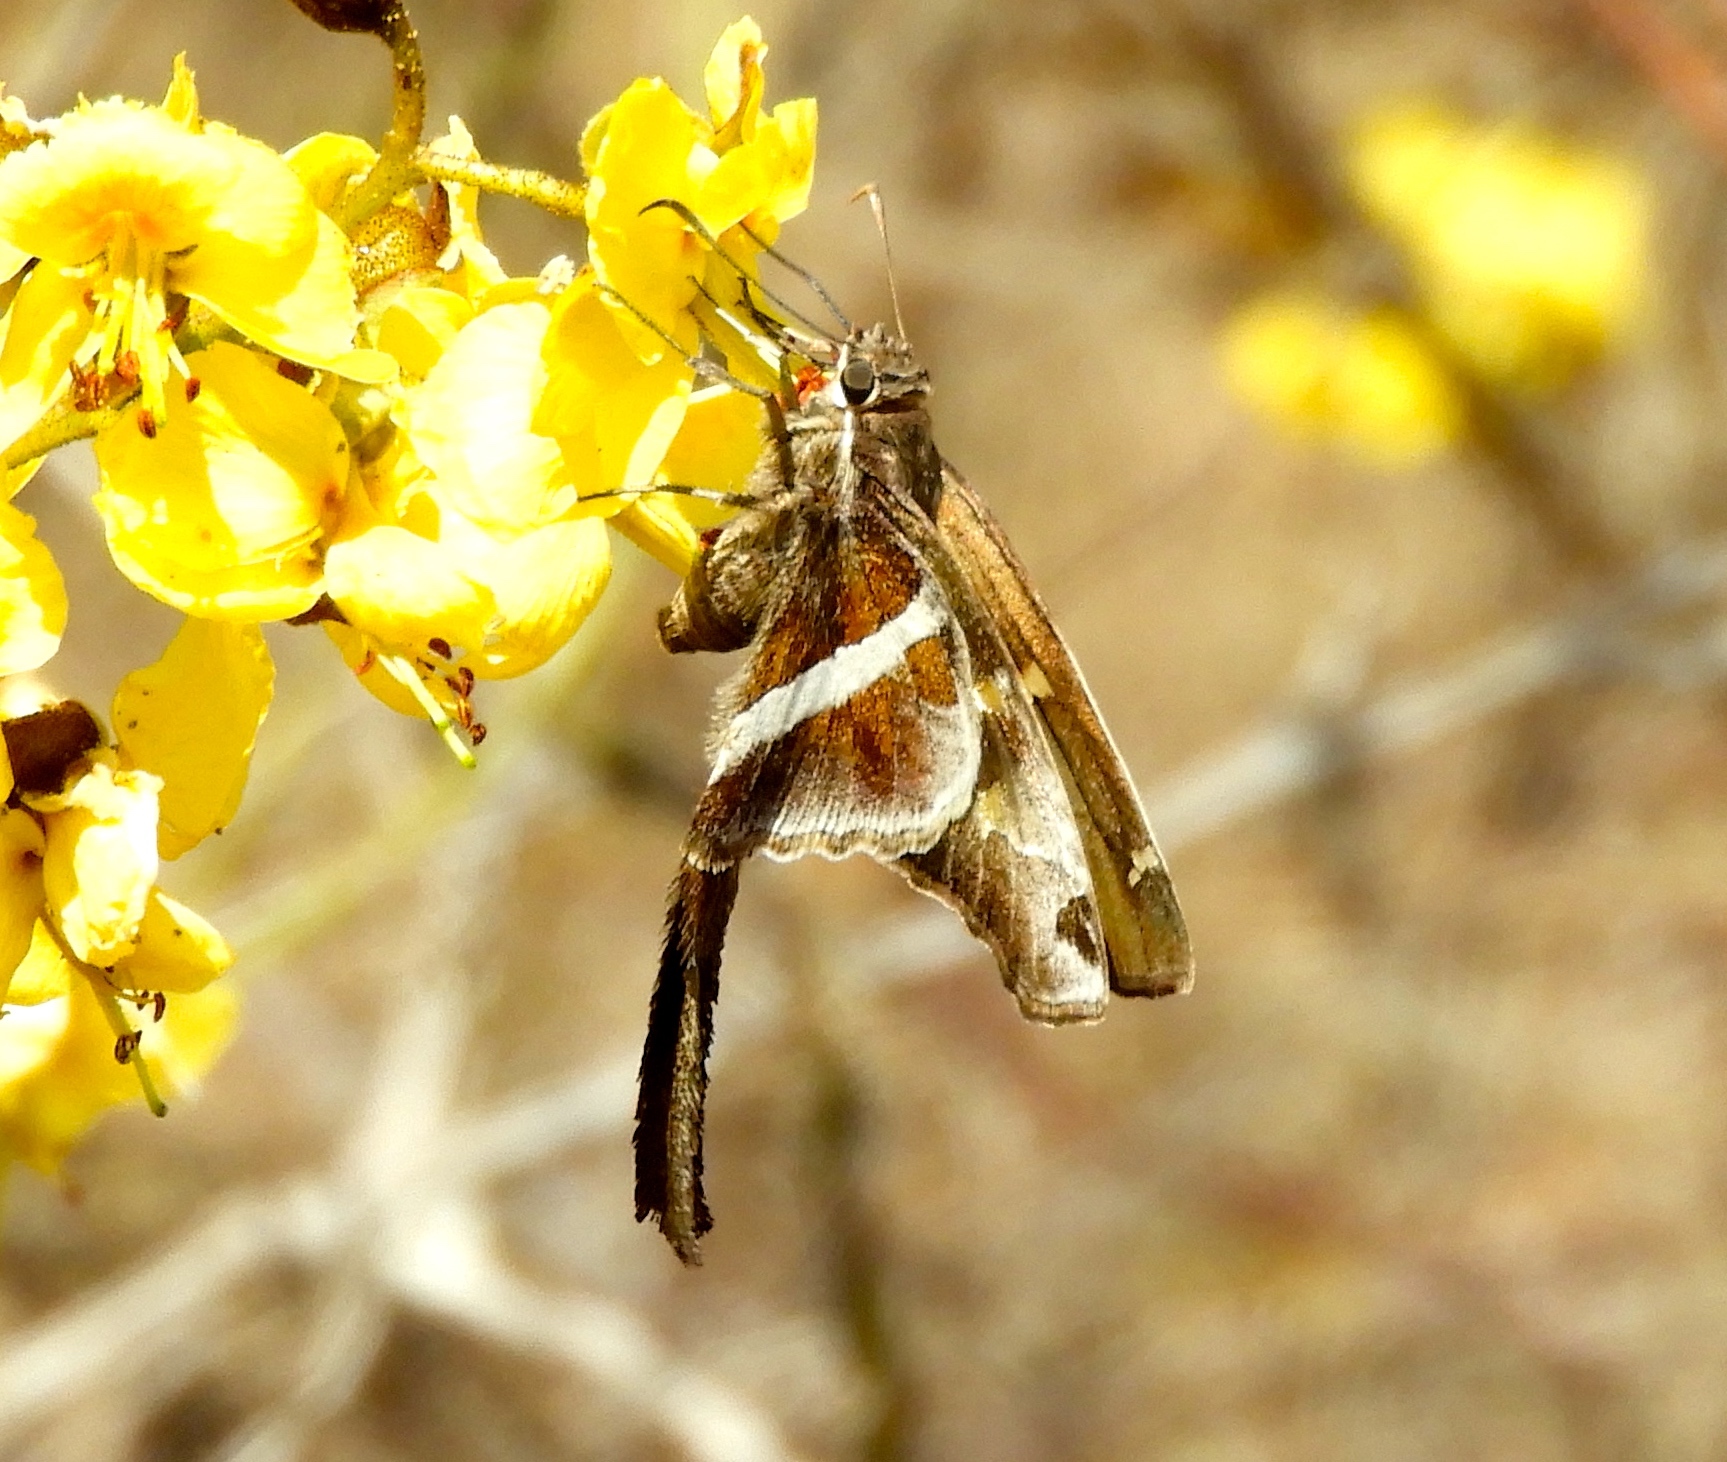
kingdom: Animalia
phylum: Arthropoda
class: Insecta
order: Lepidoptera
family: Hesperiidae
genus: Chioides
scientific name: Chioides catillus
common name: Silverbanded skipper
